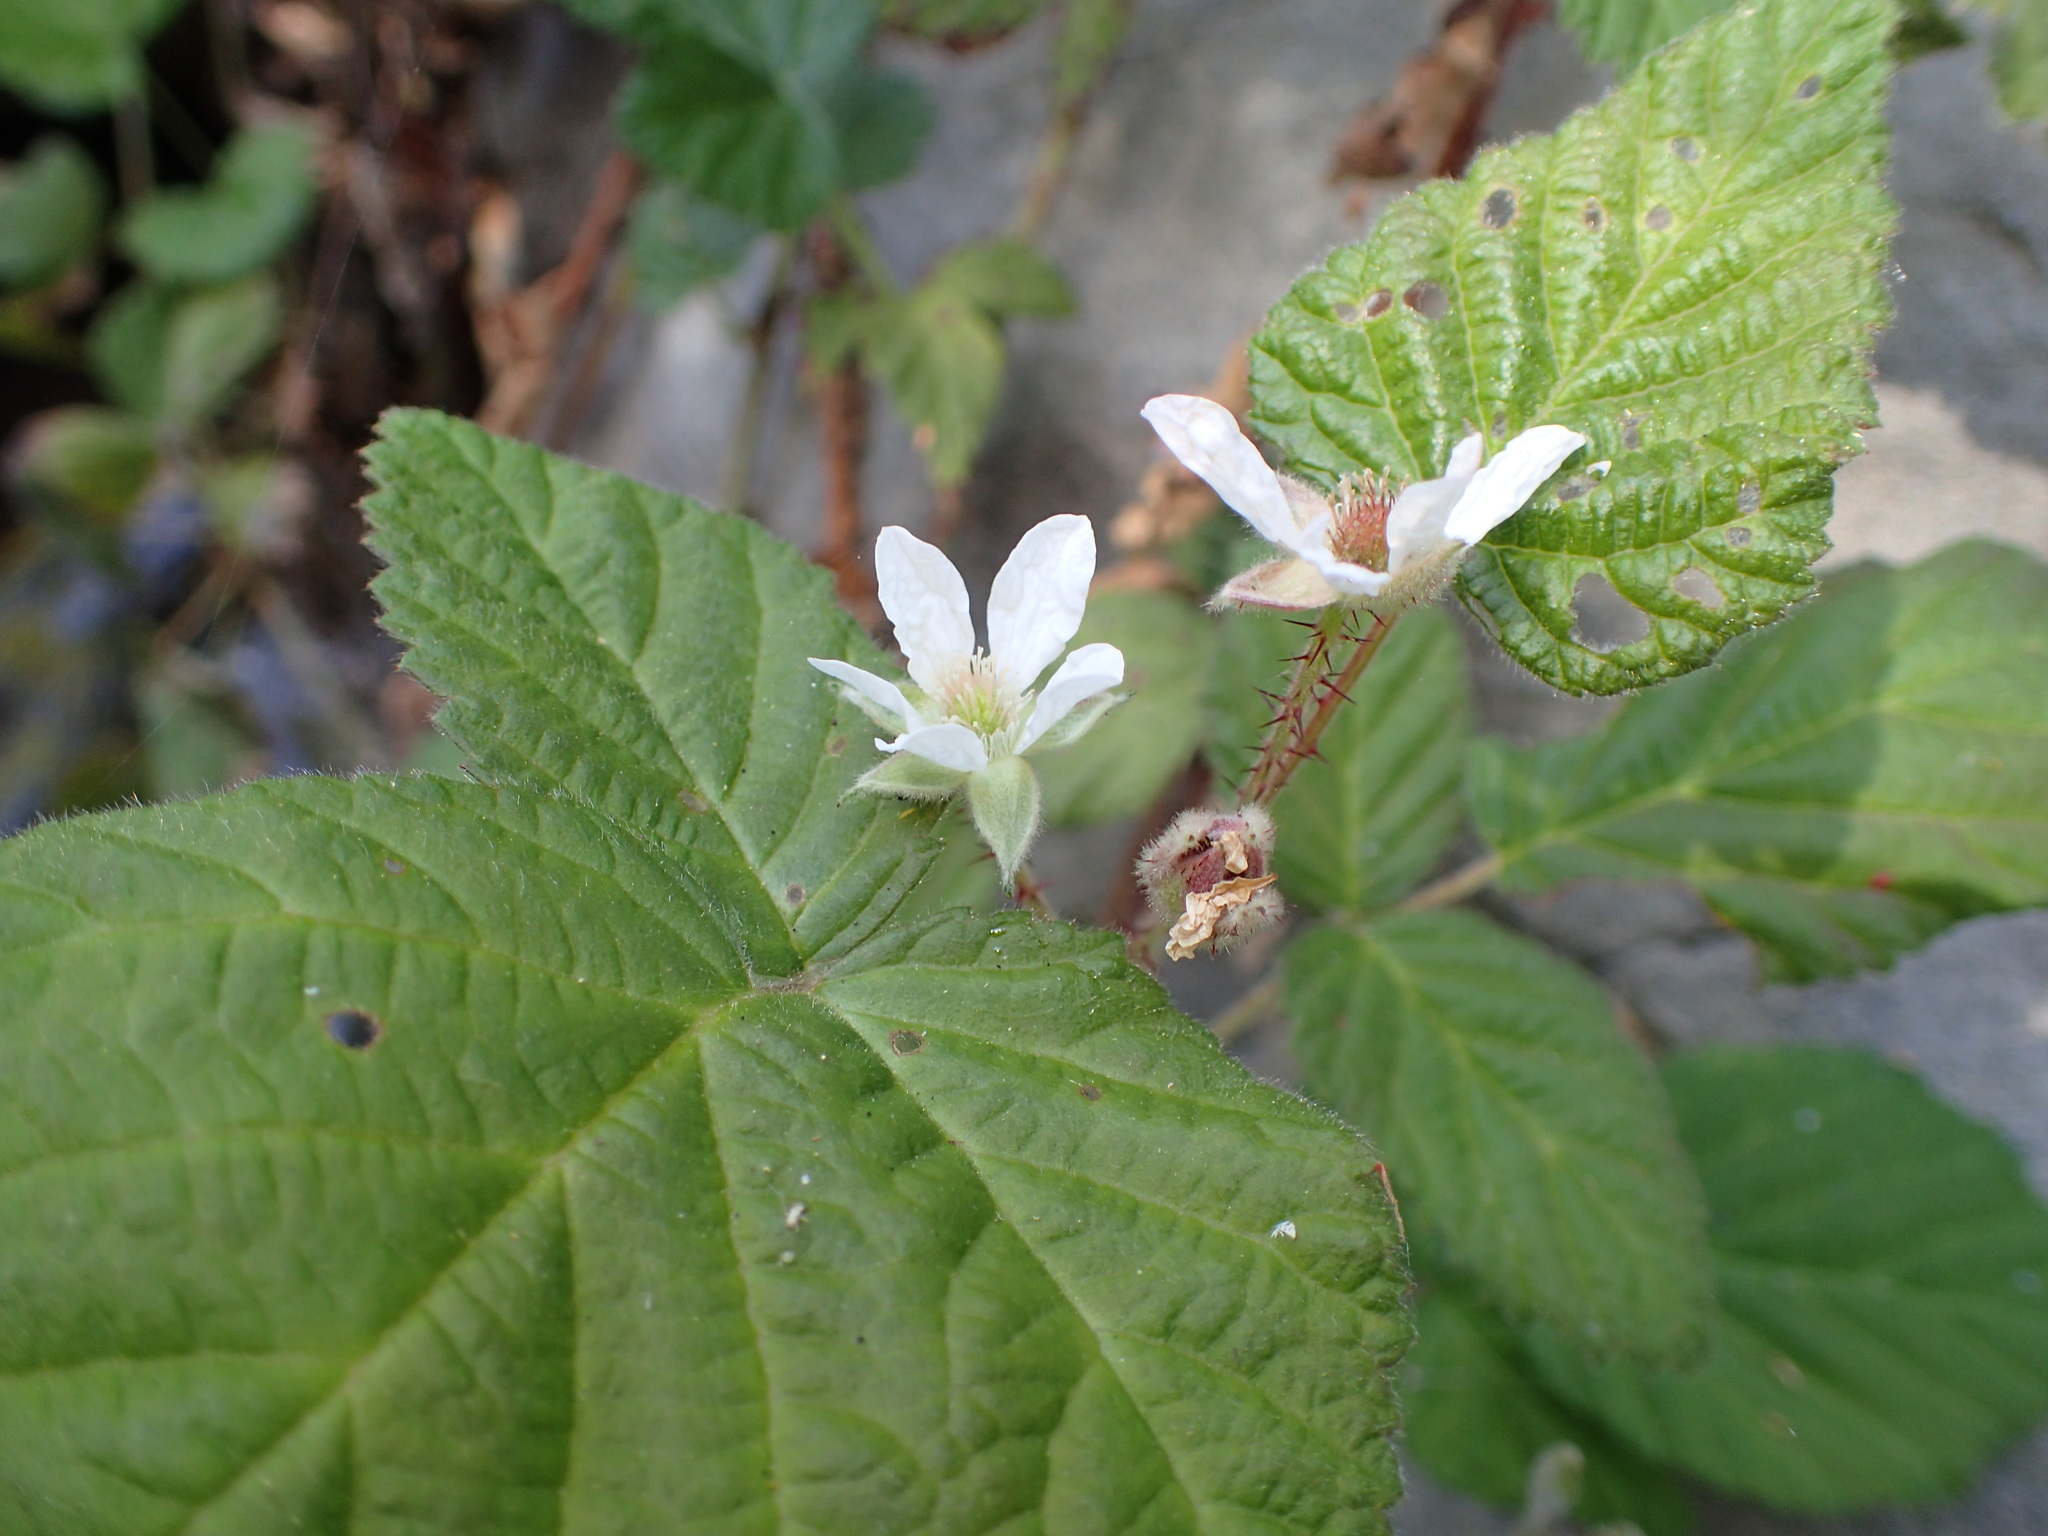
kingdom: Plantae
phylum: Tracheophyta
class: Magnoliopsida
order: Rosales
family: Rosaceae
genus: Rubus
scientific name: Rubus ursinus
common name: Pacific blackberry
